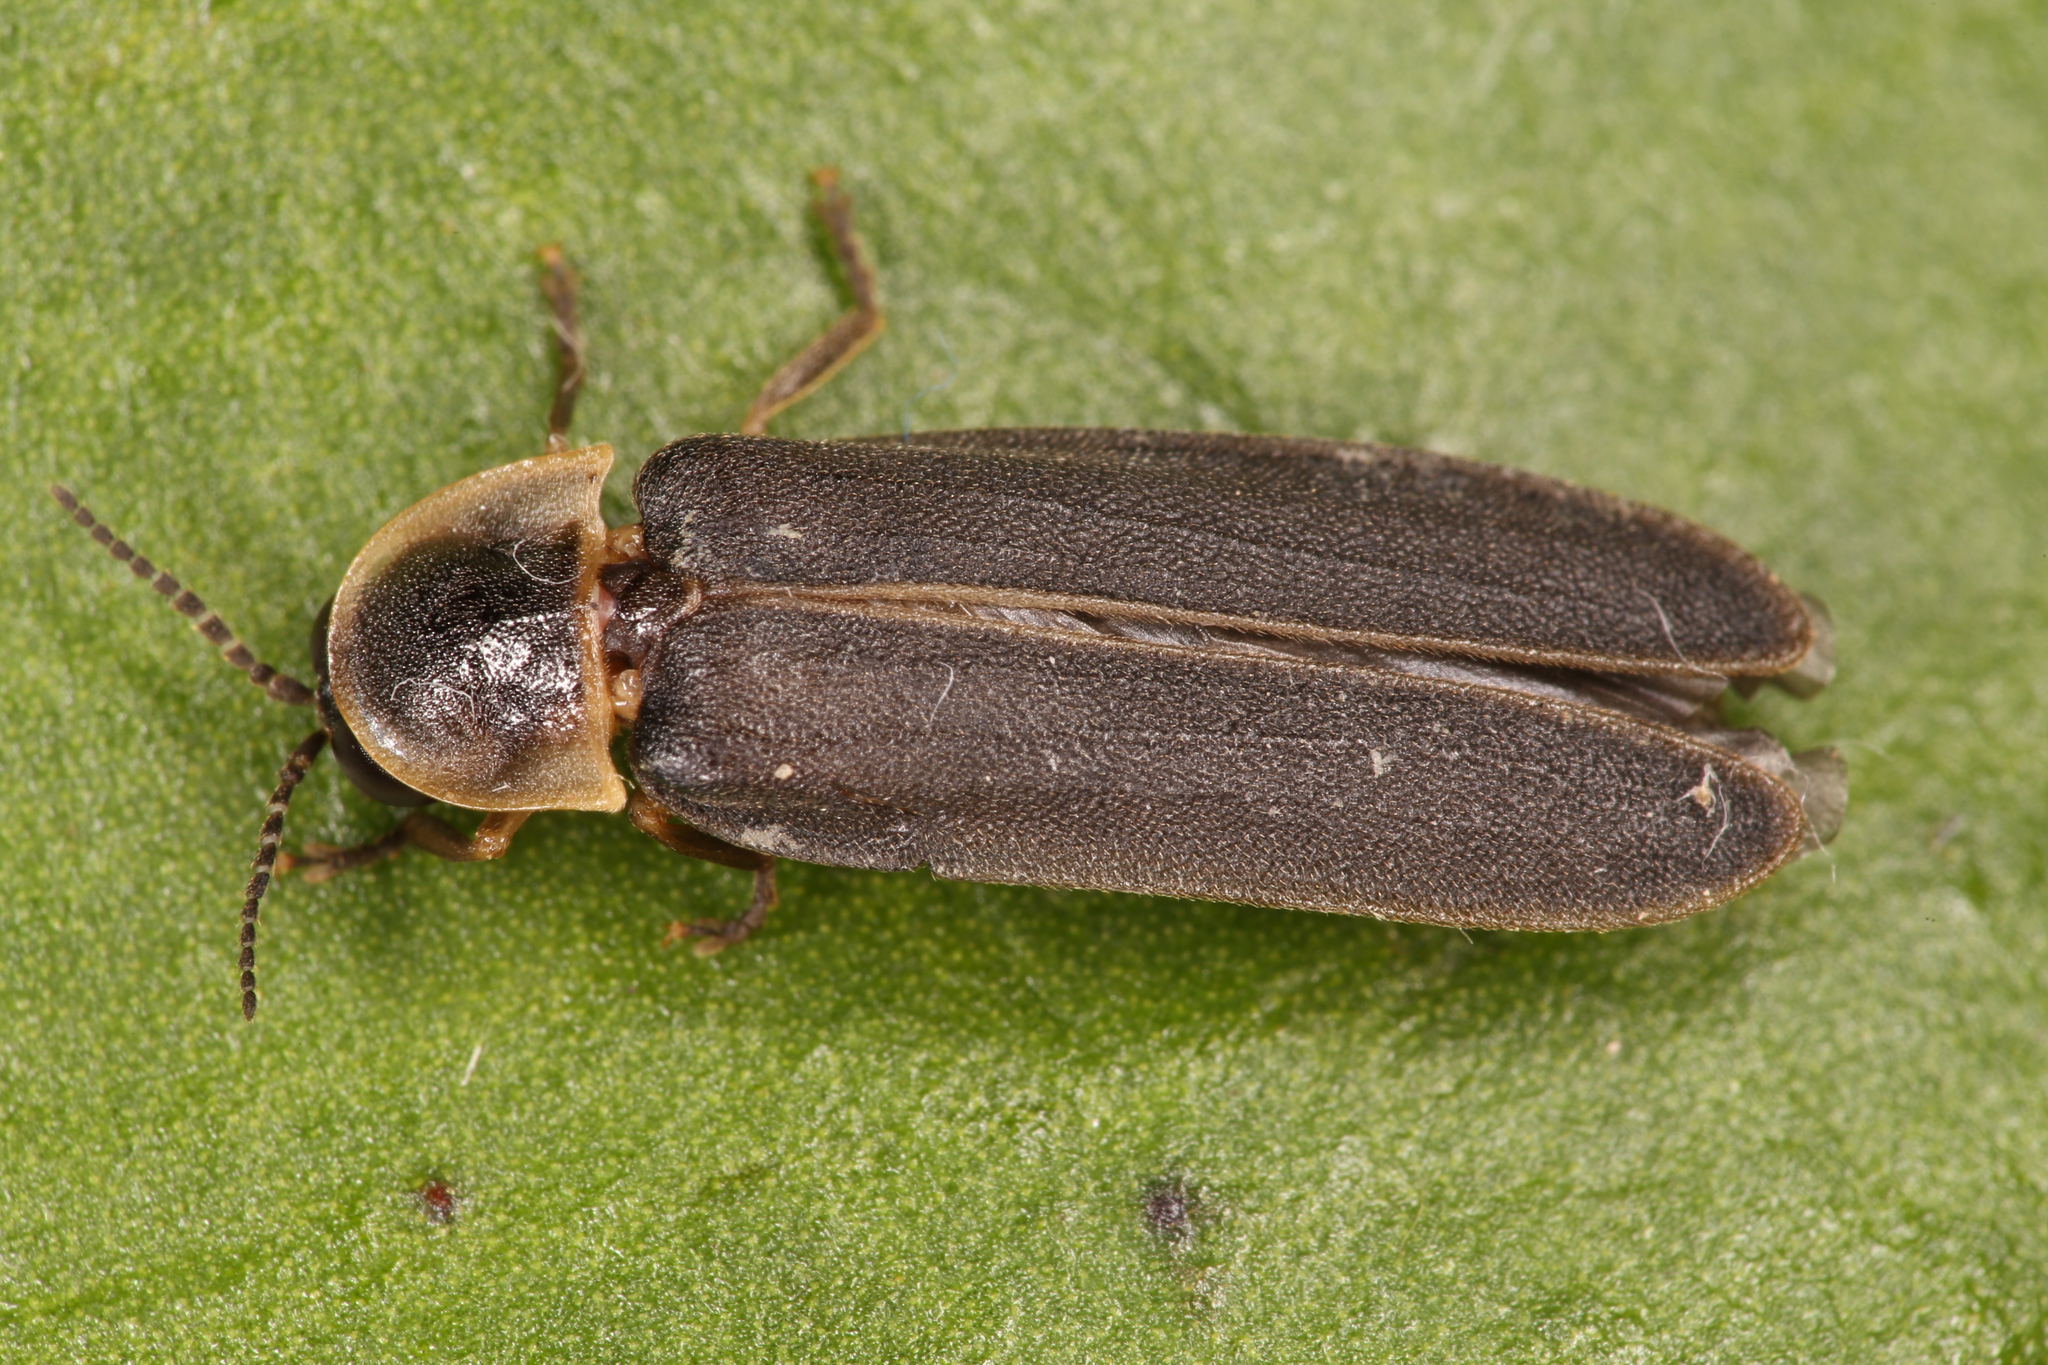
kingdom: Animalia
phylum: Arthropoda
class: Insecta
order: Coleoptera
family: Lampyridae
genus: Lampyris
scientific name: Lampyris noctiluca
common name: Glow-worm
